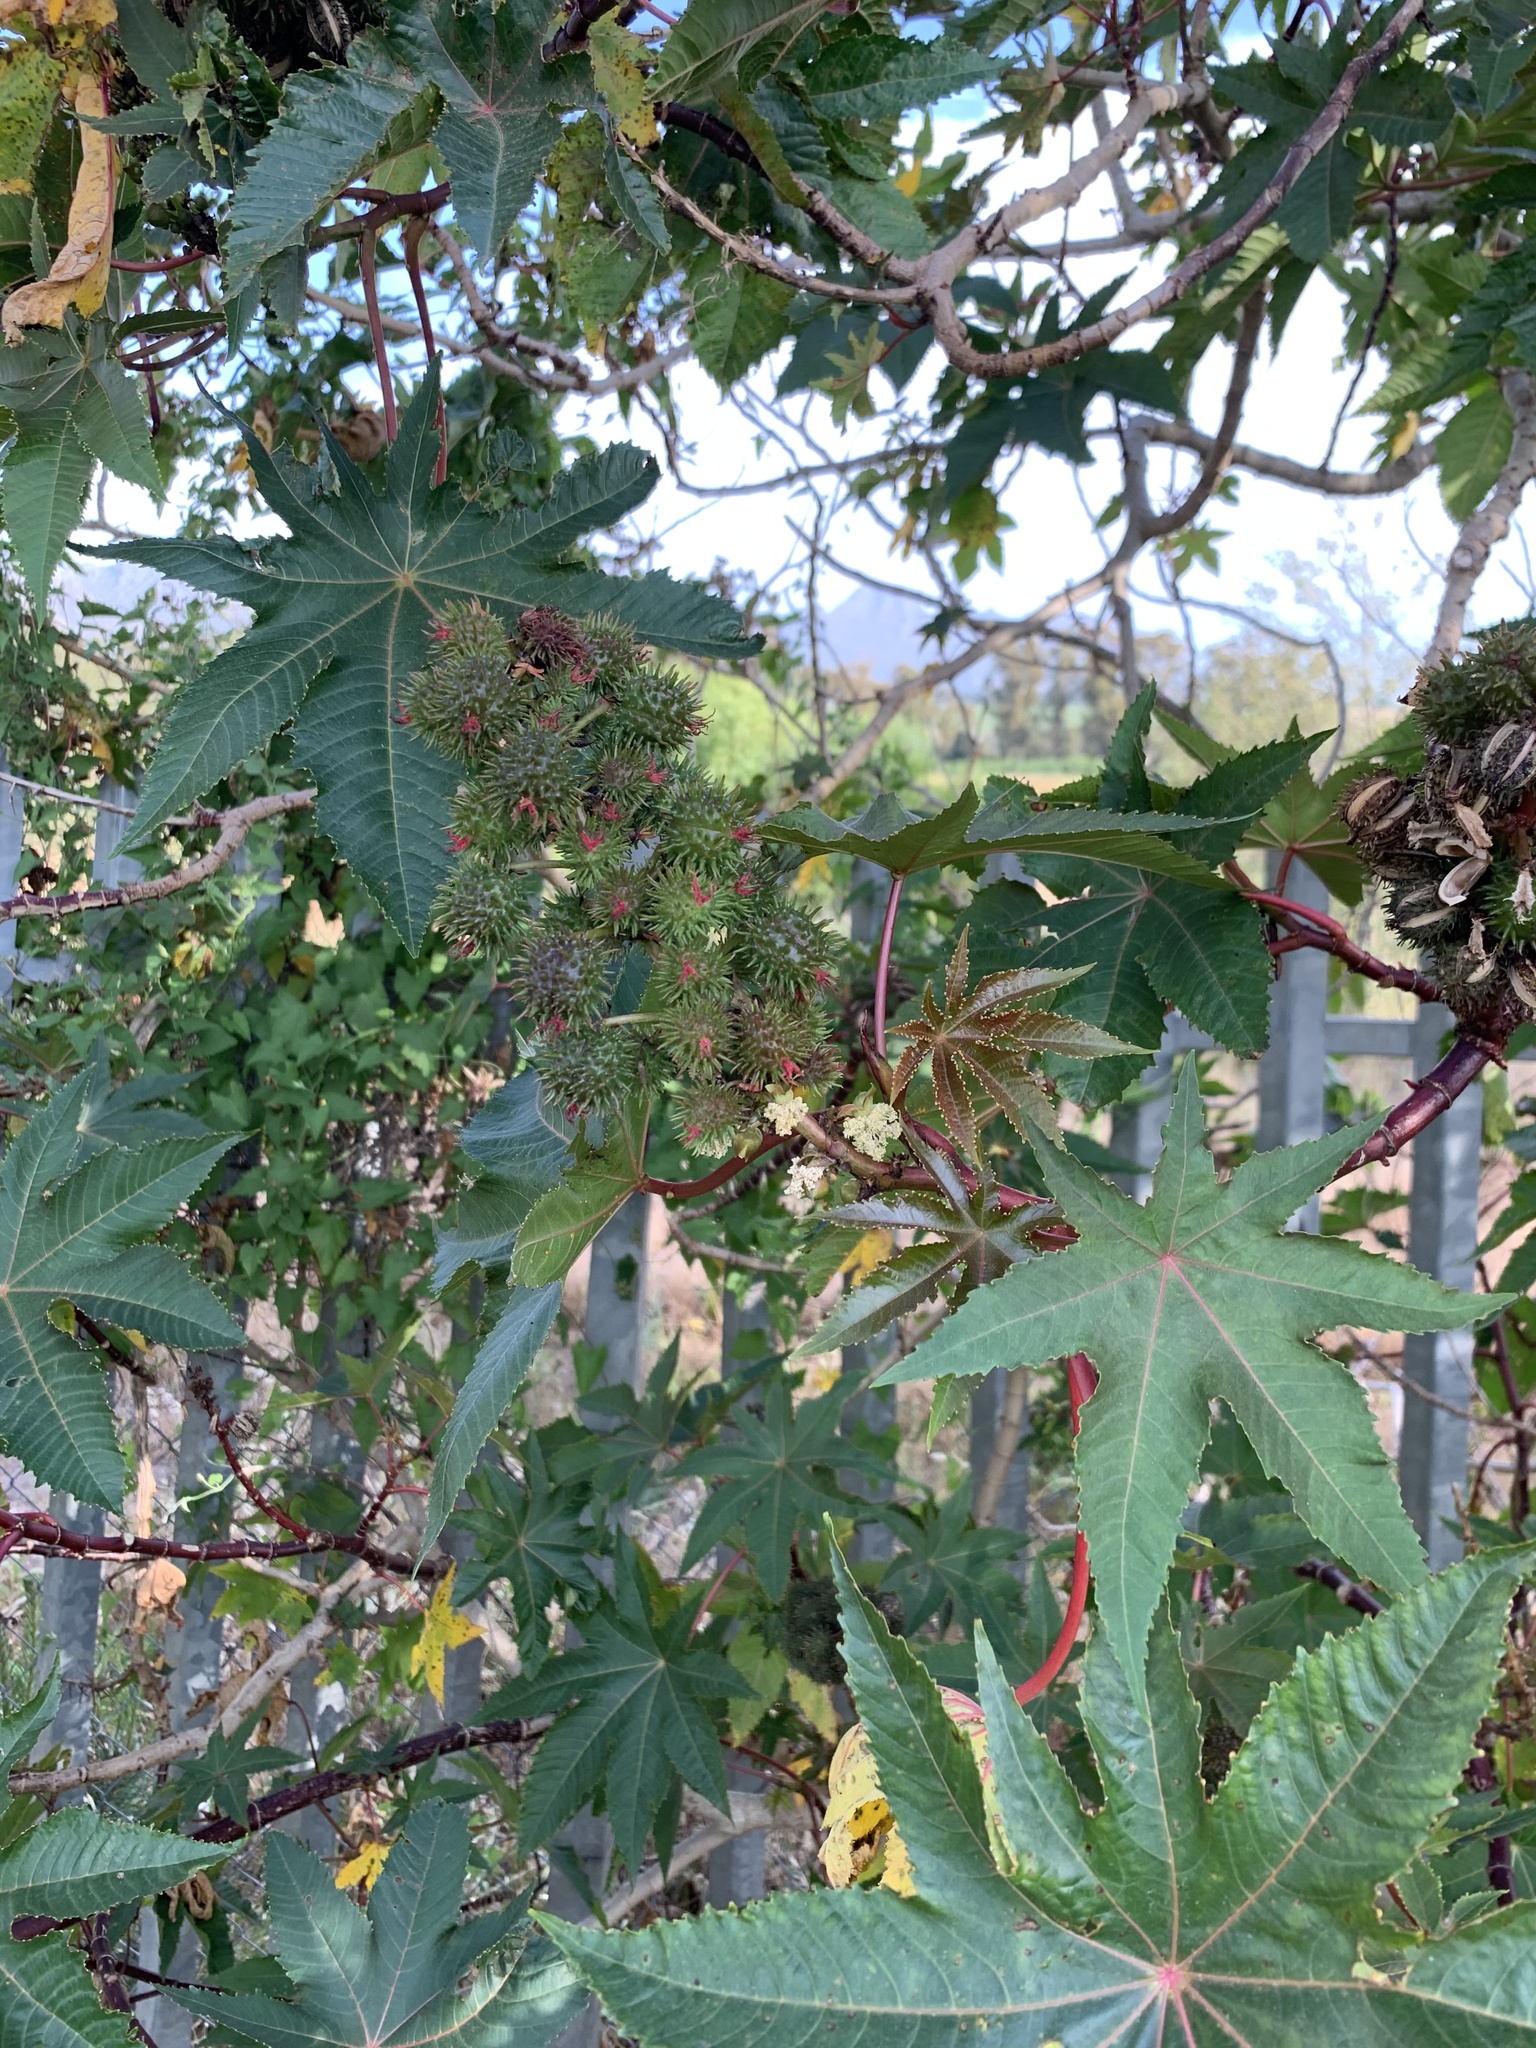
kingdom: Plantae
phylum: Tracheophyta
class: Magnoliopsida
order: Malpighiales
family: Euphorbiaceae
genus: Ricinus
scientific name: Ricinus communis
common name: Castor-oil-plant
